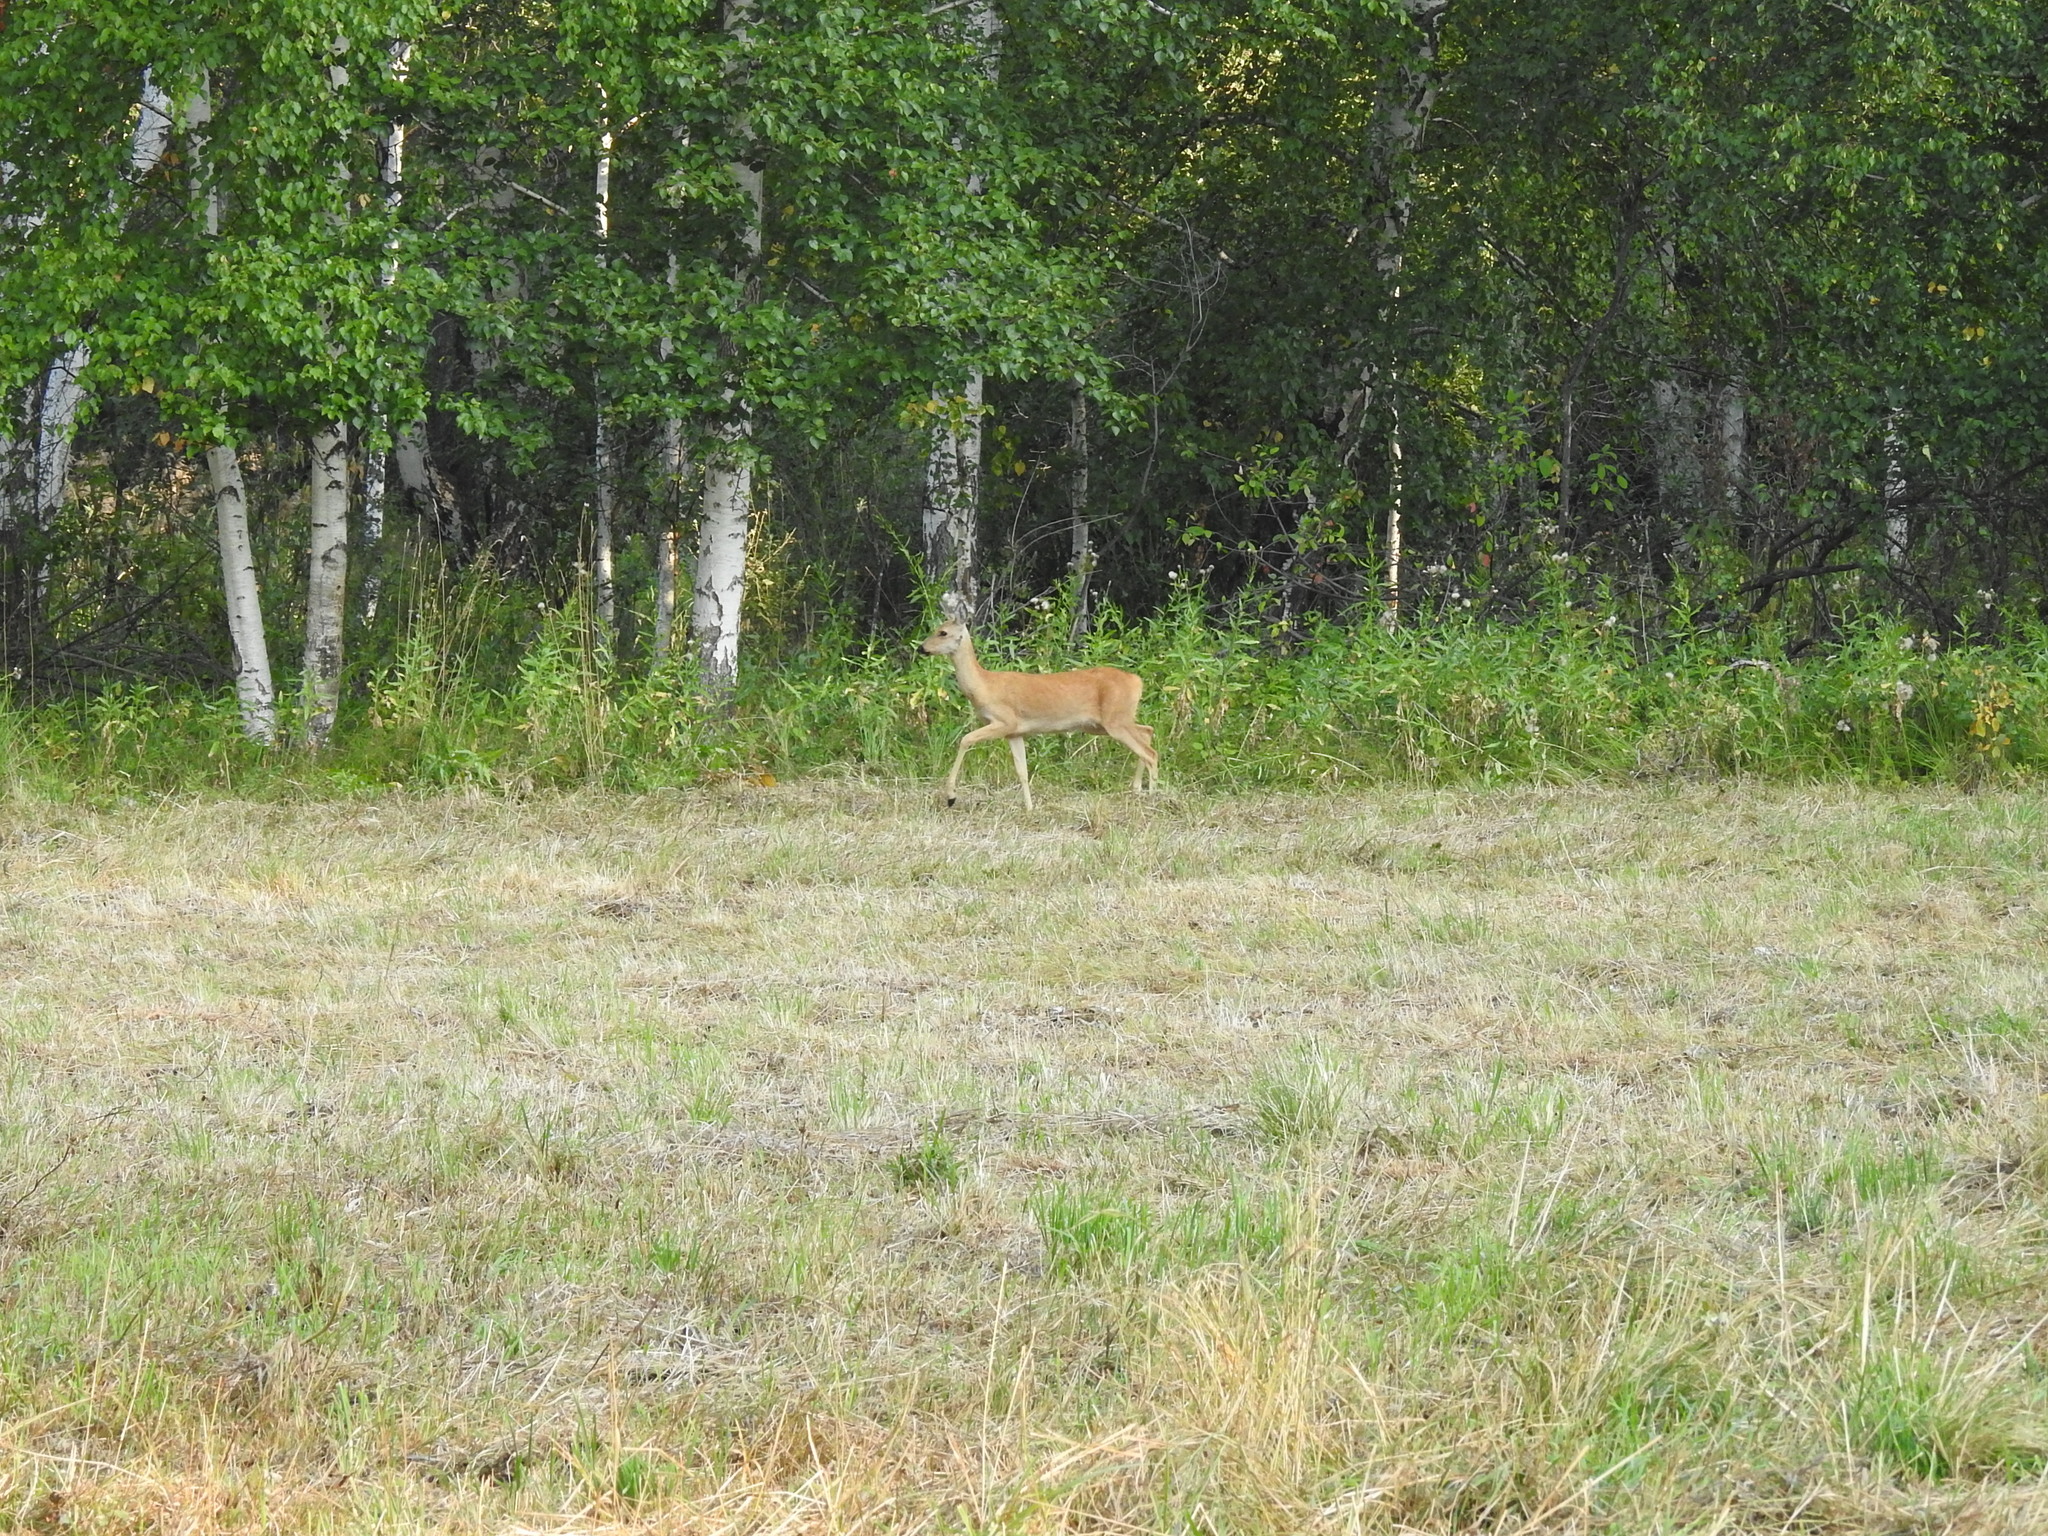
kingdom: Animalia
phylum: Chordata
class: Mammalia
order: Artiodactyla
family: Cervidae
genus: Capreolus
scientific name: Capreolus pygargus
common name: Siberian roe
